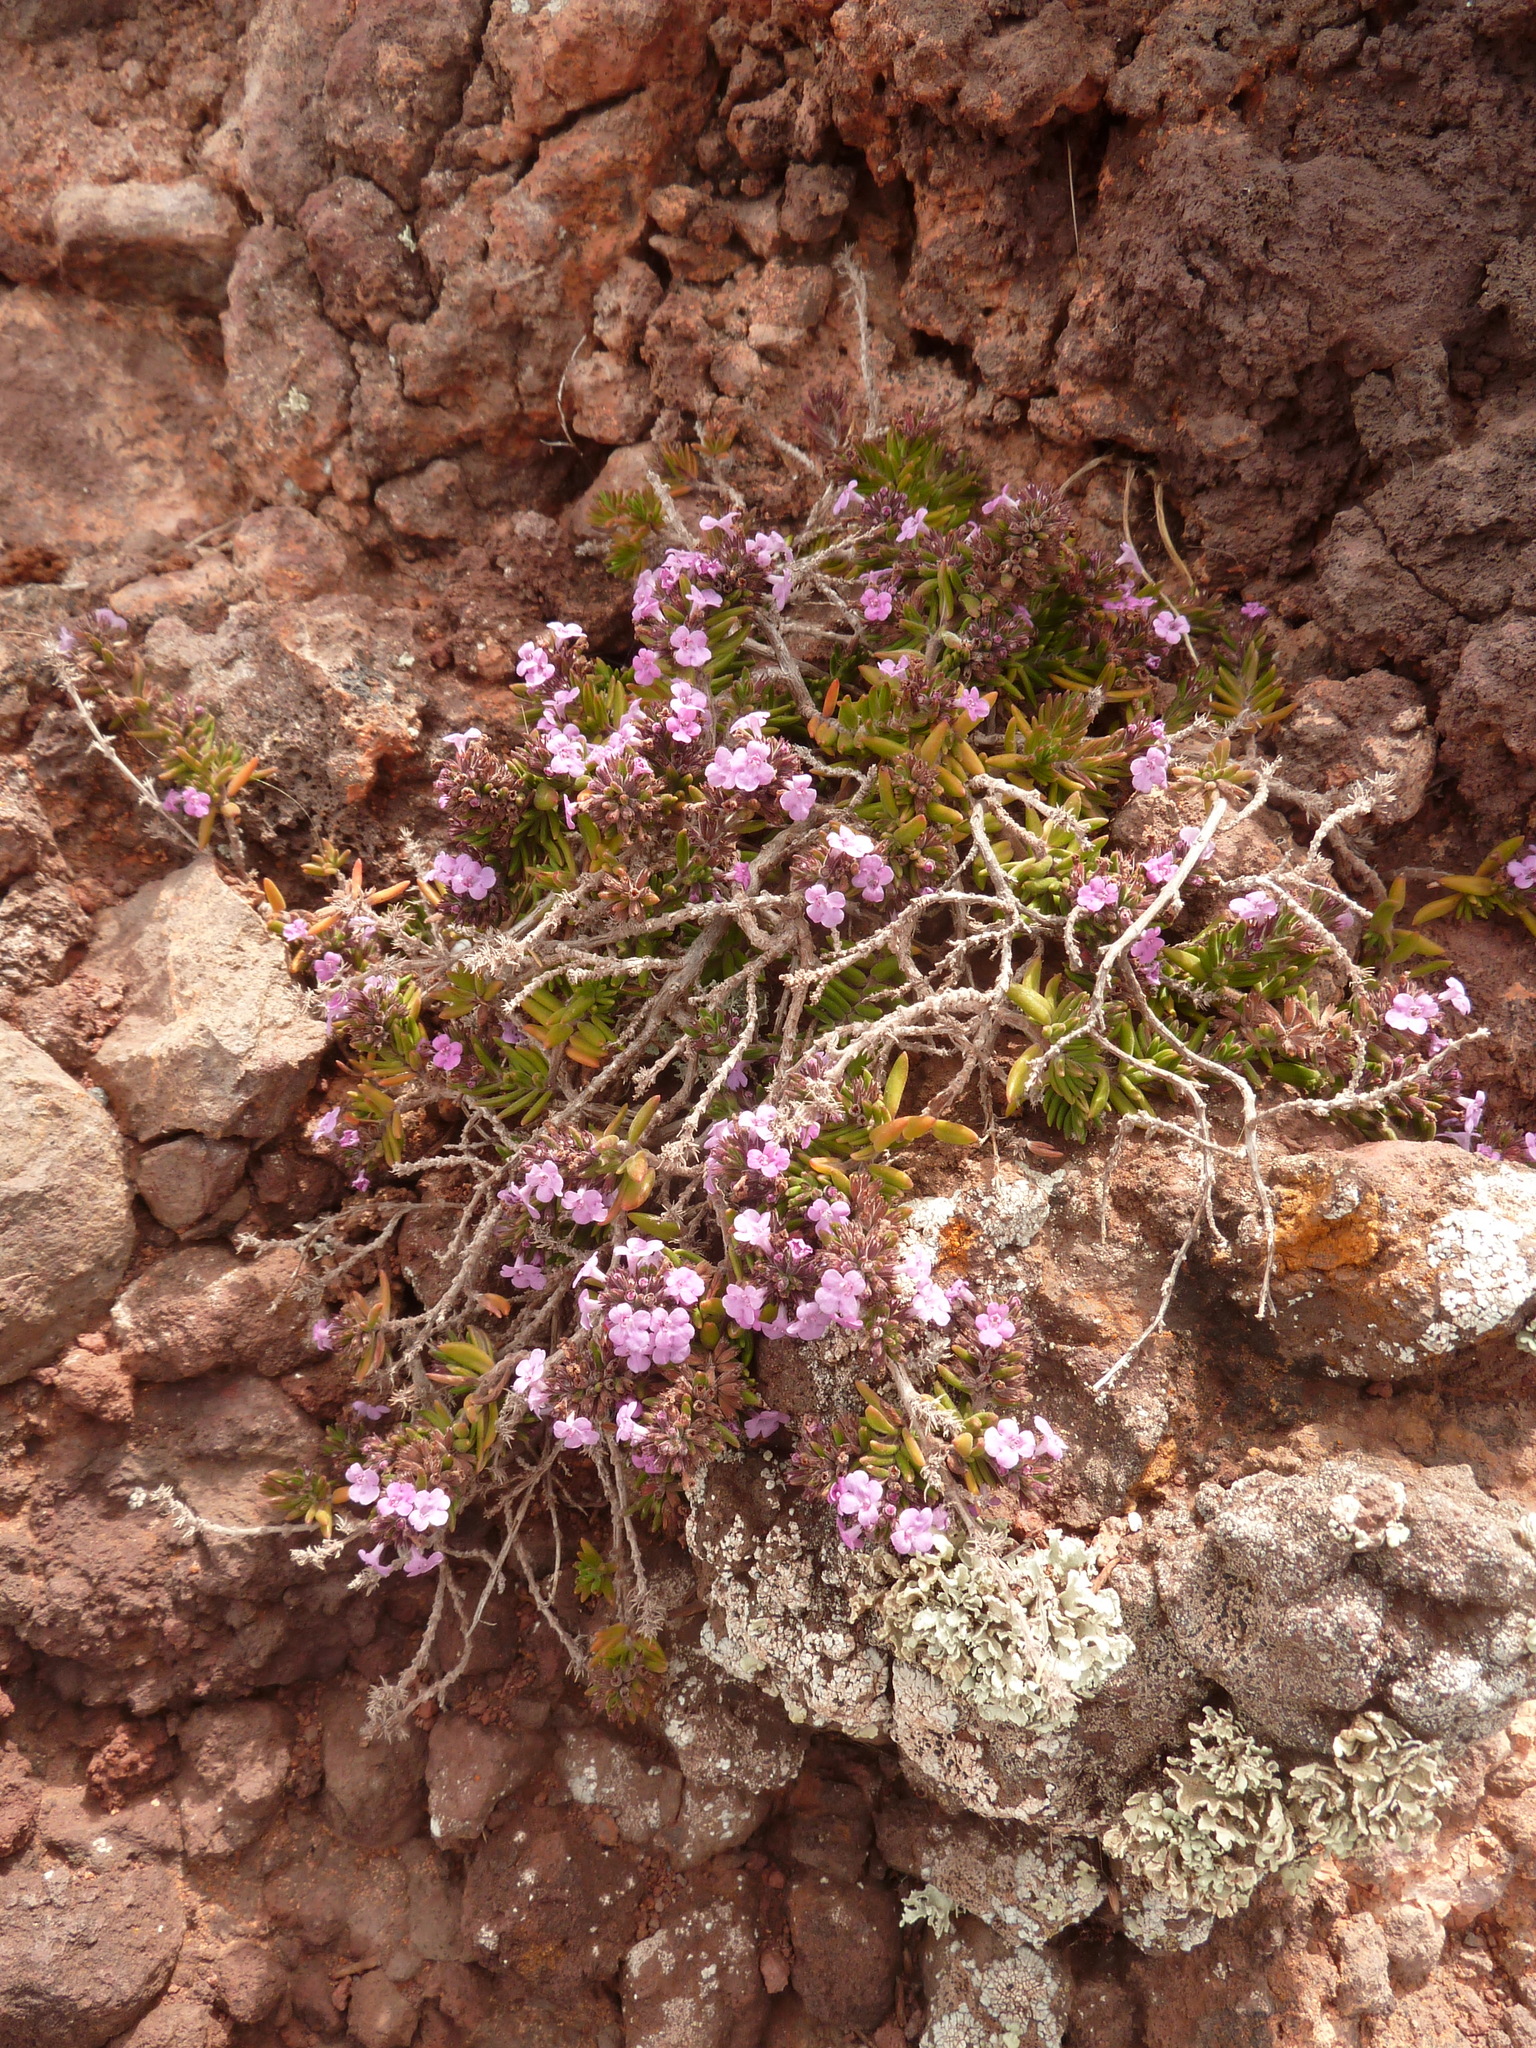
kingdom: Plantae
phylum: Tracheophyta
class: Magnoliopsida
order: Lamiales
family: Lamiaceae
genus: Micromeria
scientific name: Micromeria maderensis
